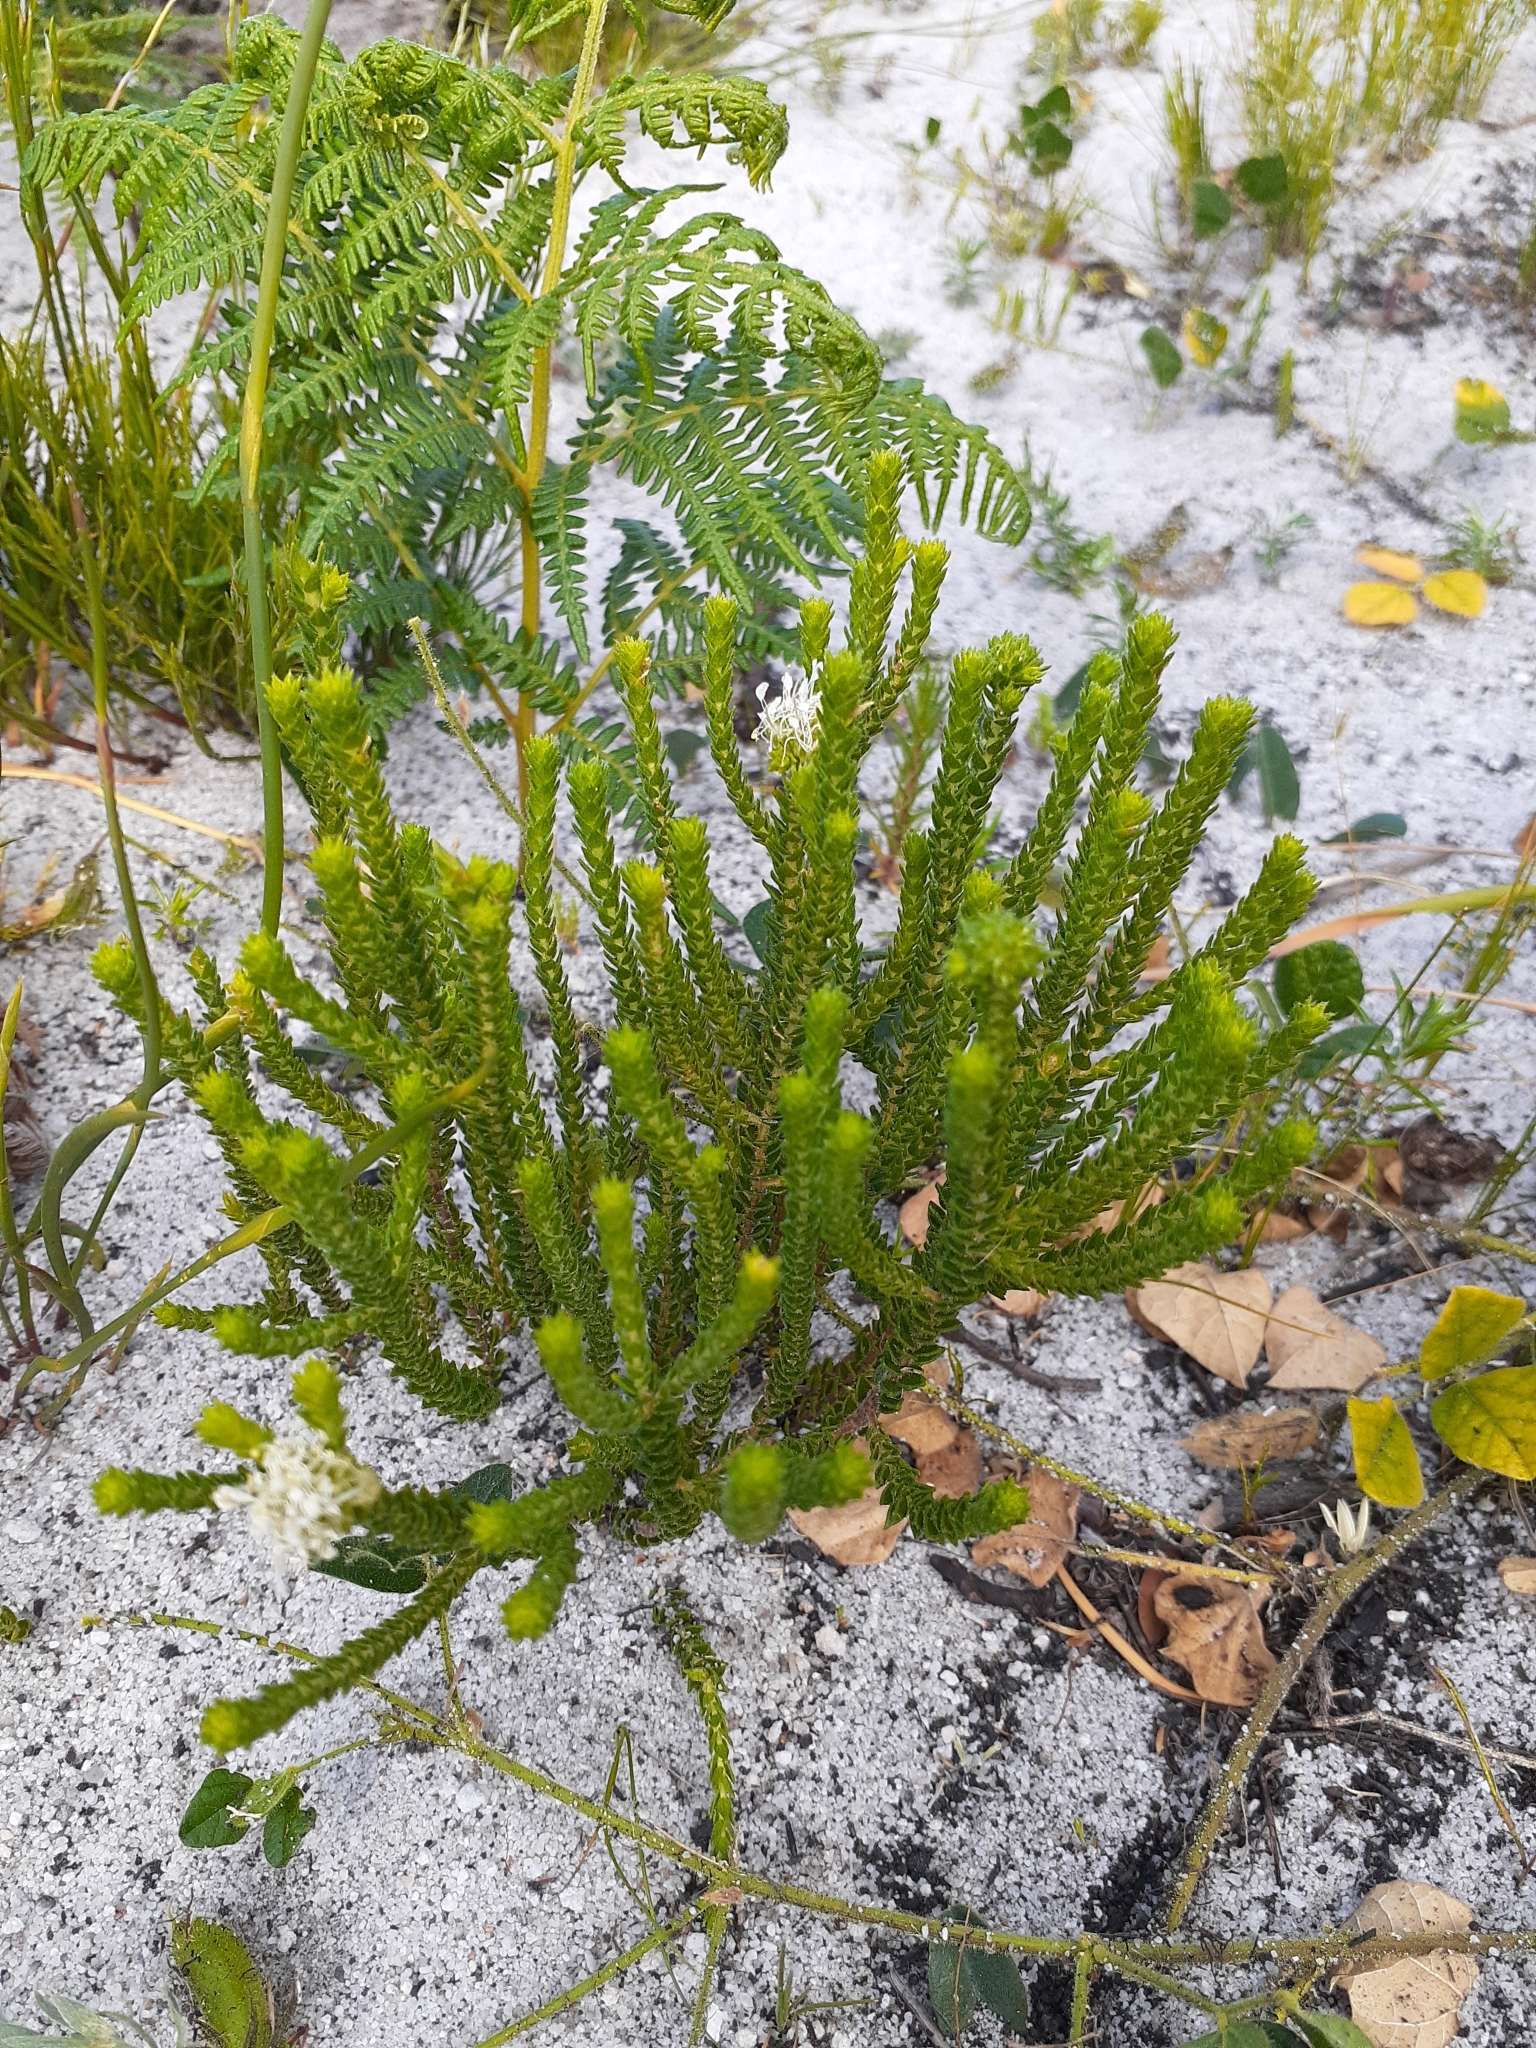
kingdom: Plantae
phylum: Tracheophyta
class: Magnoliopsida
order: Sapindales
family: Rutaceae
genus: Agathosma
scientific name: Agathosma imbricata
